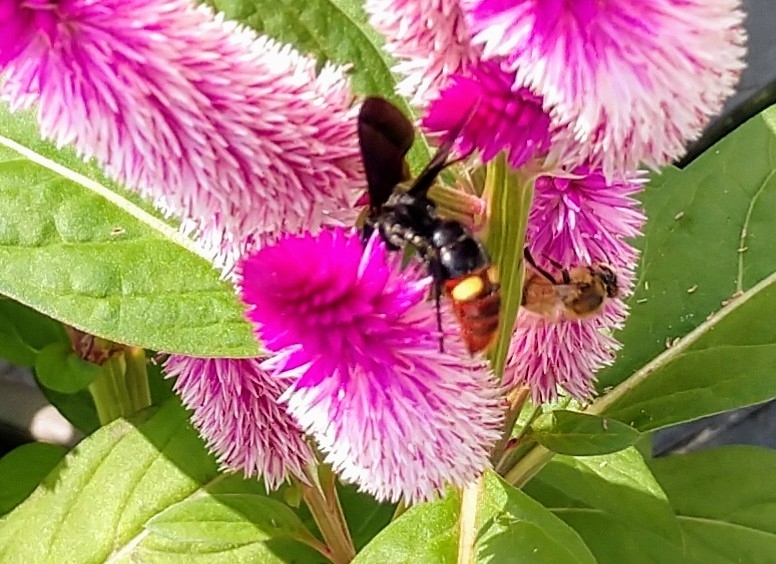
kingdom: Animalia
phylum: Arthropoda
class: Insecta
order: Hymenoptera
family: Scoliidae
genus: Scolia
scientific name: Scolia dubia
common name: Blue-winged scoliid wasp
